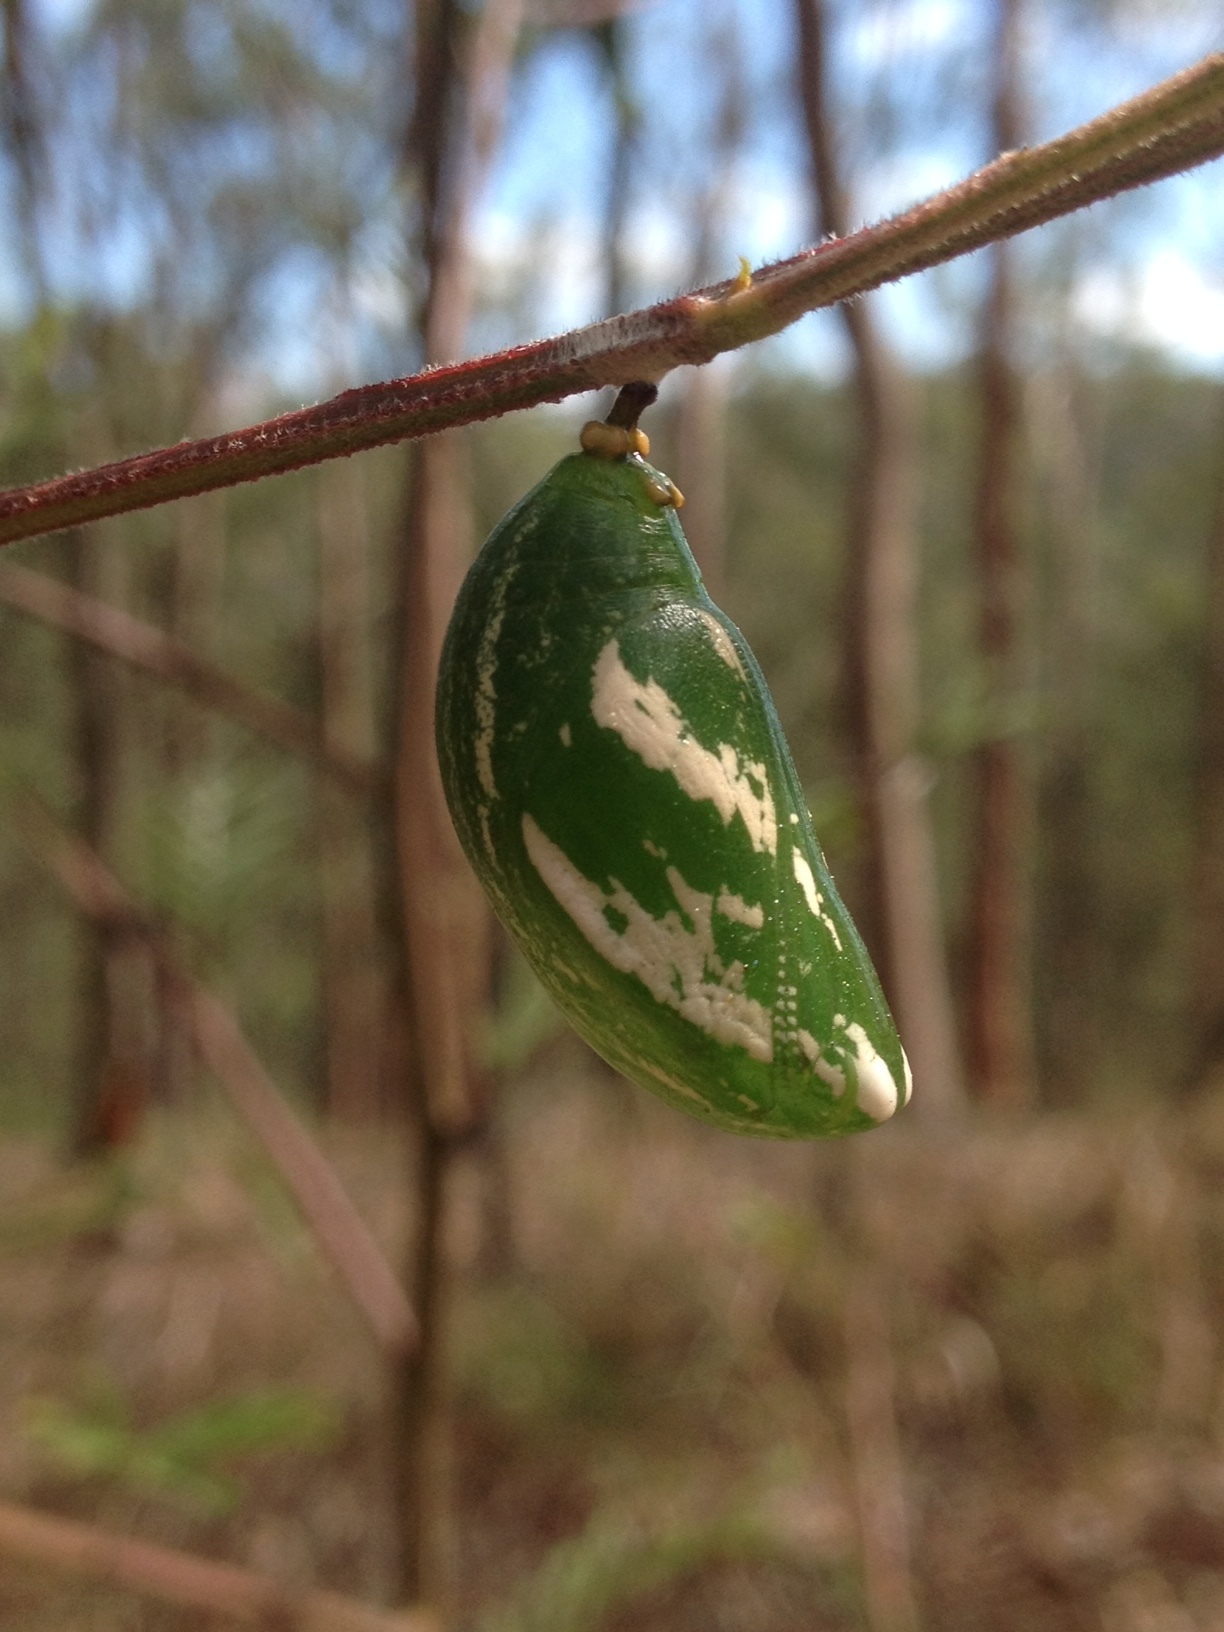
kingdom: Animalia
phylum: Arthropoda
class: Insecta
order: Lepidoptera
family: Nymphalidae
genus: Charaxes
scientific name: Charaxes
